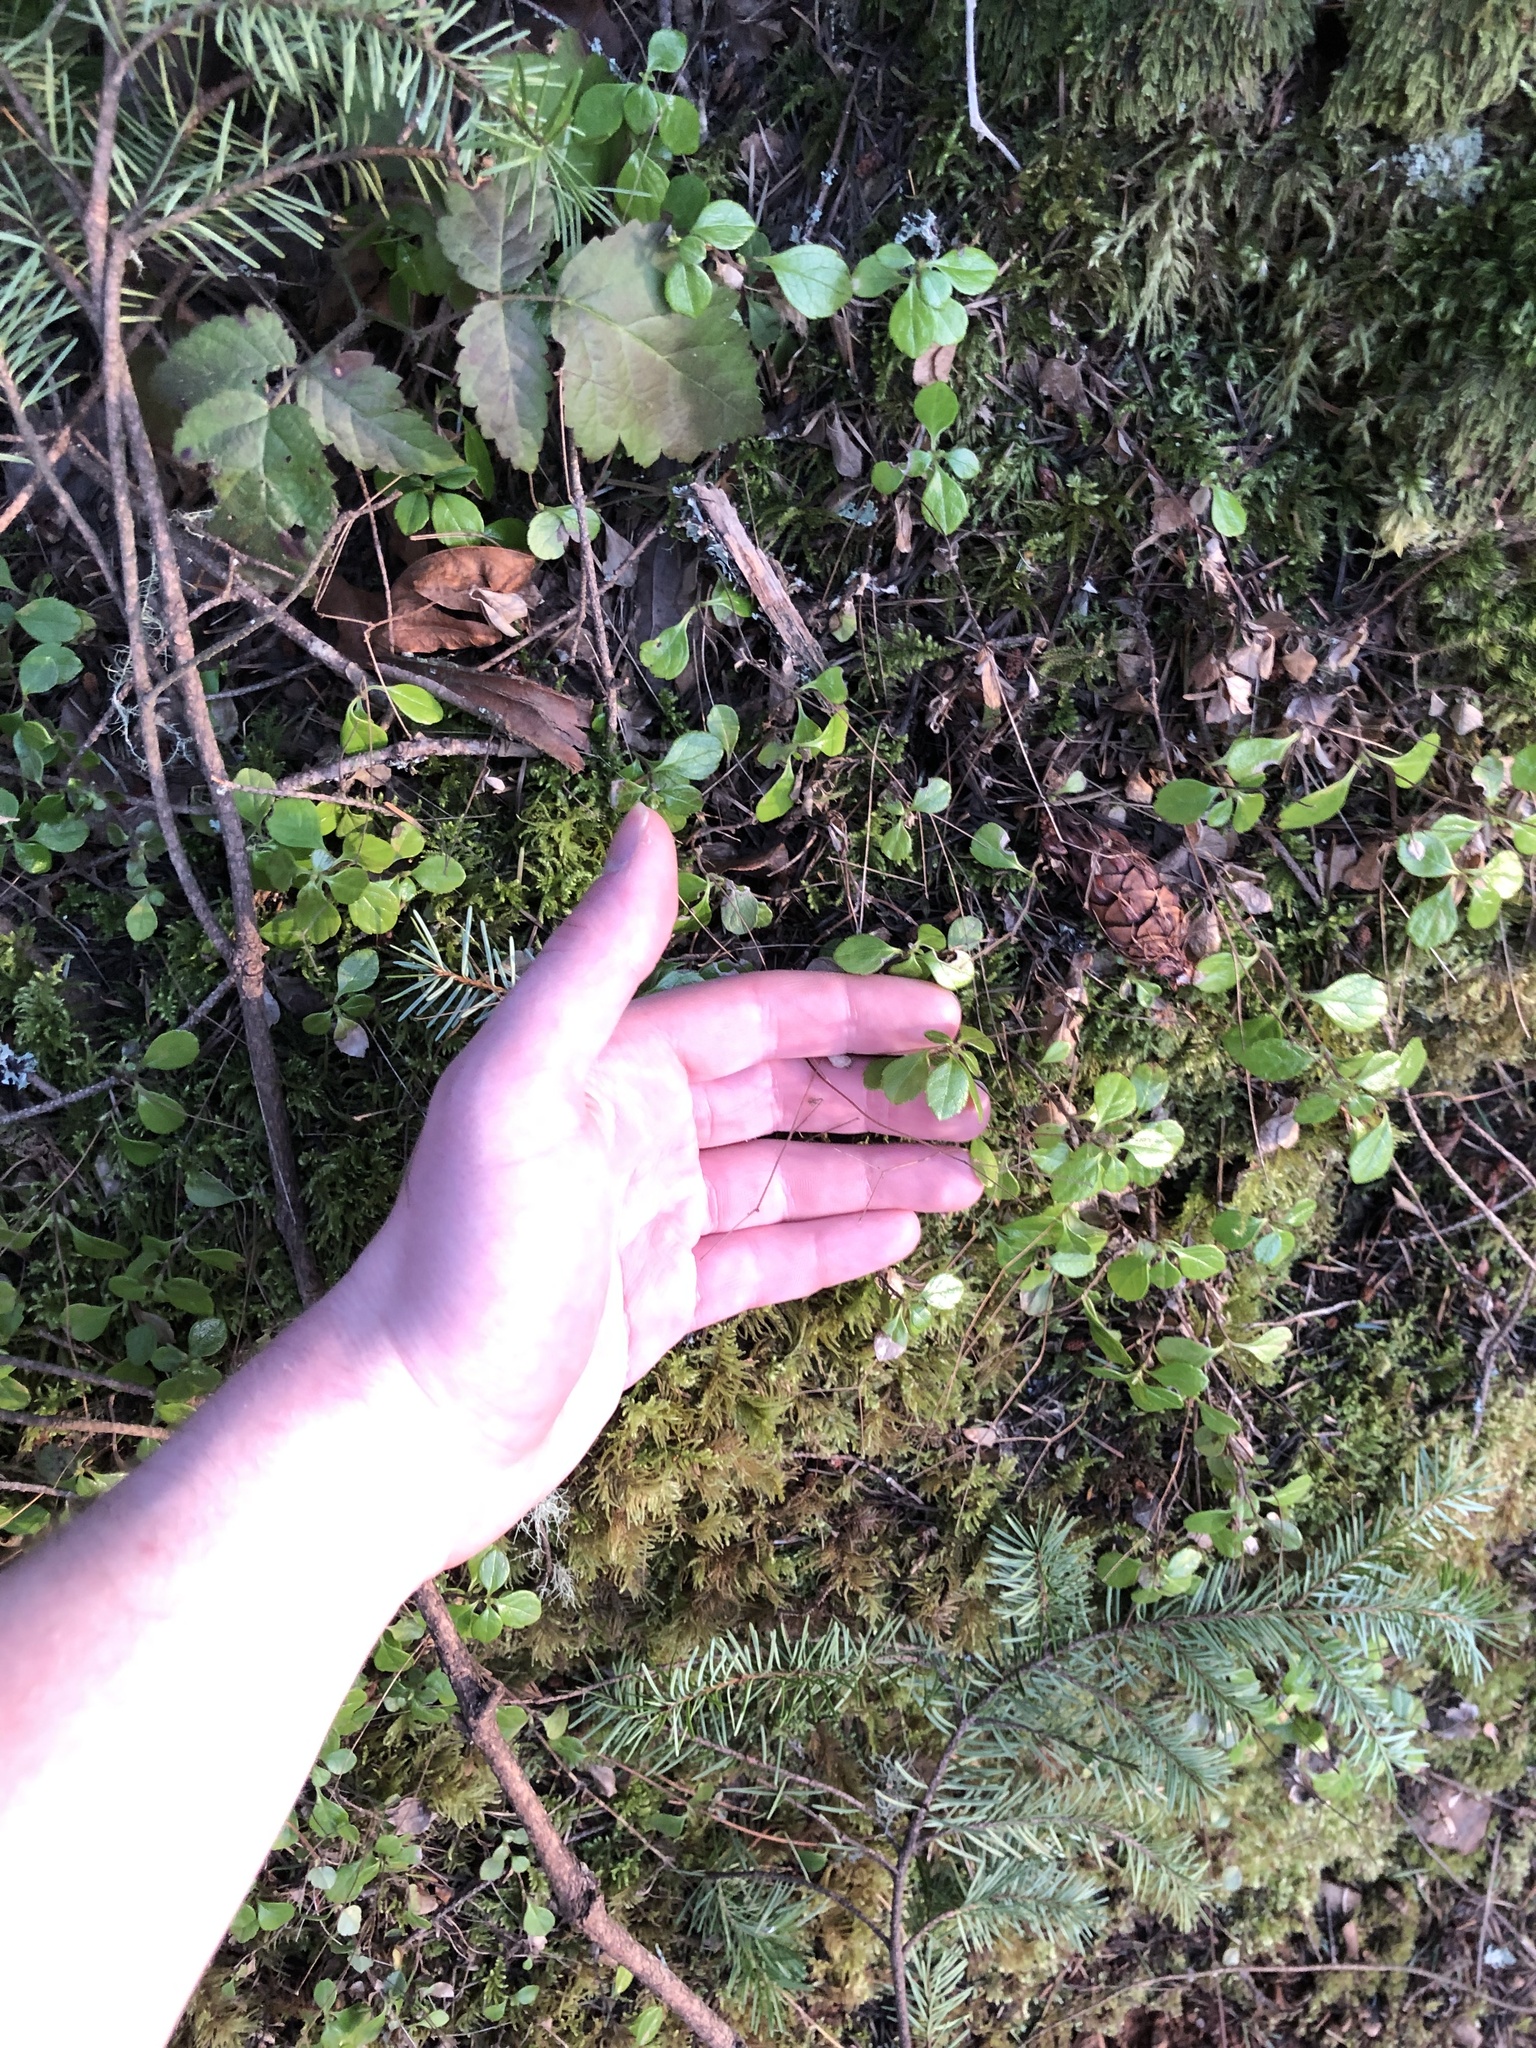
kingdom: Plantae
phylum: Tracheophyta
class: Magnoliopsida
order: Dipsacales
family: Caprifoliaceae
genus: Linnaea
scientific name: Linnaea borealis
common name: Twinflower
